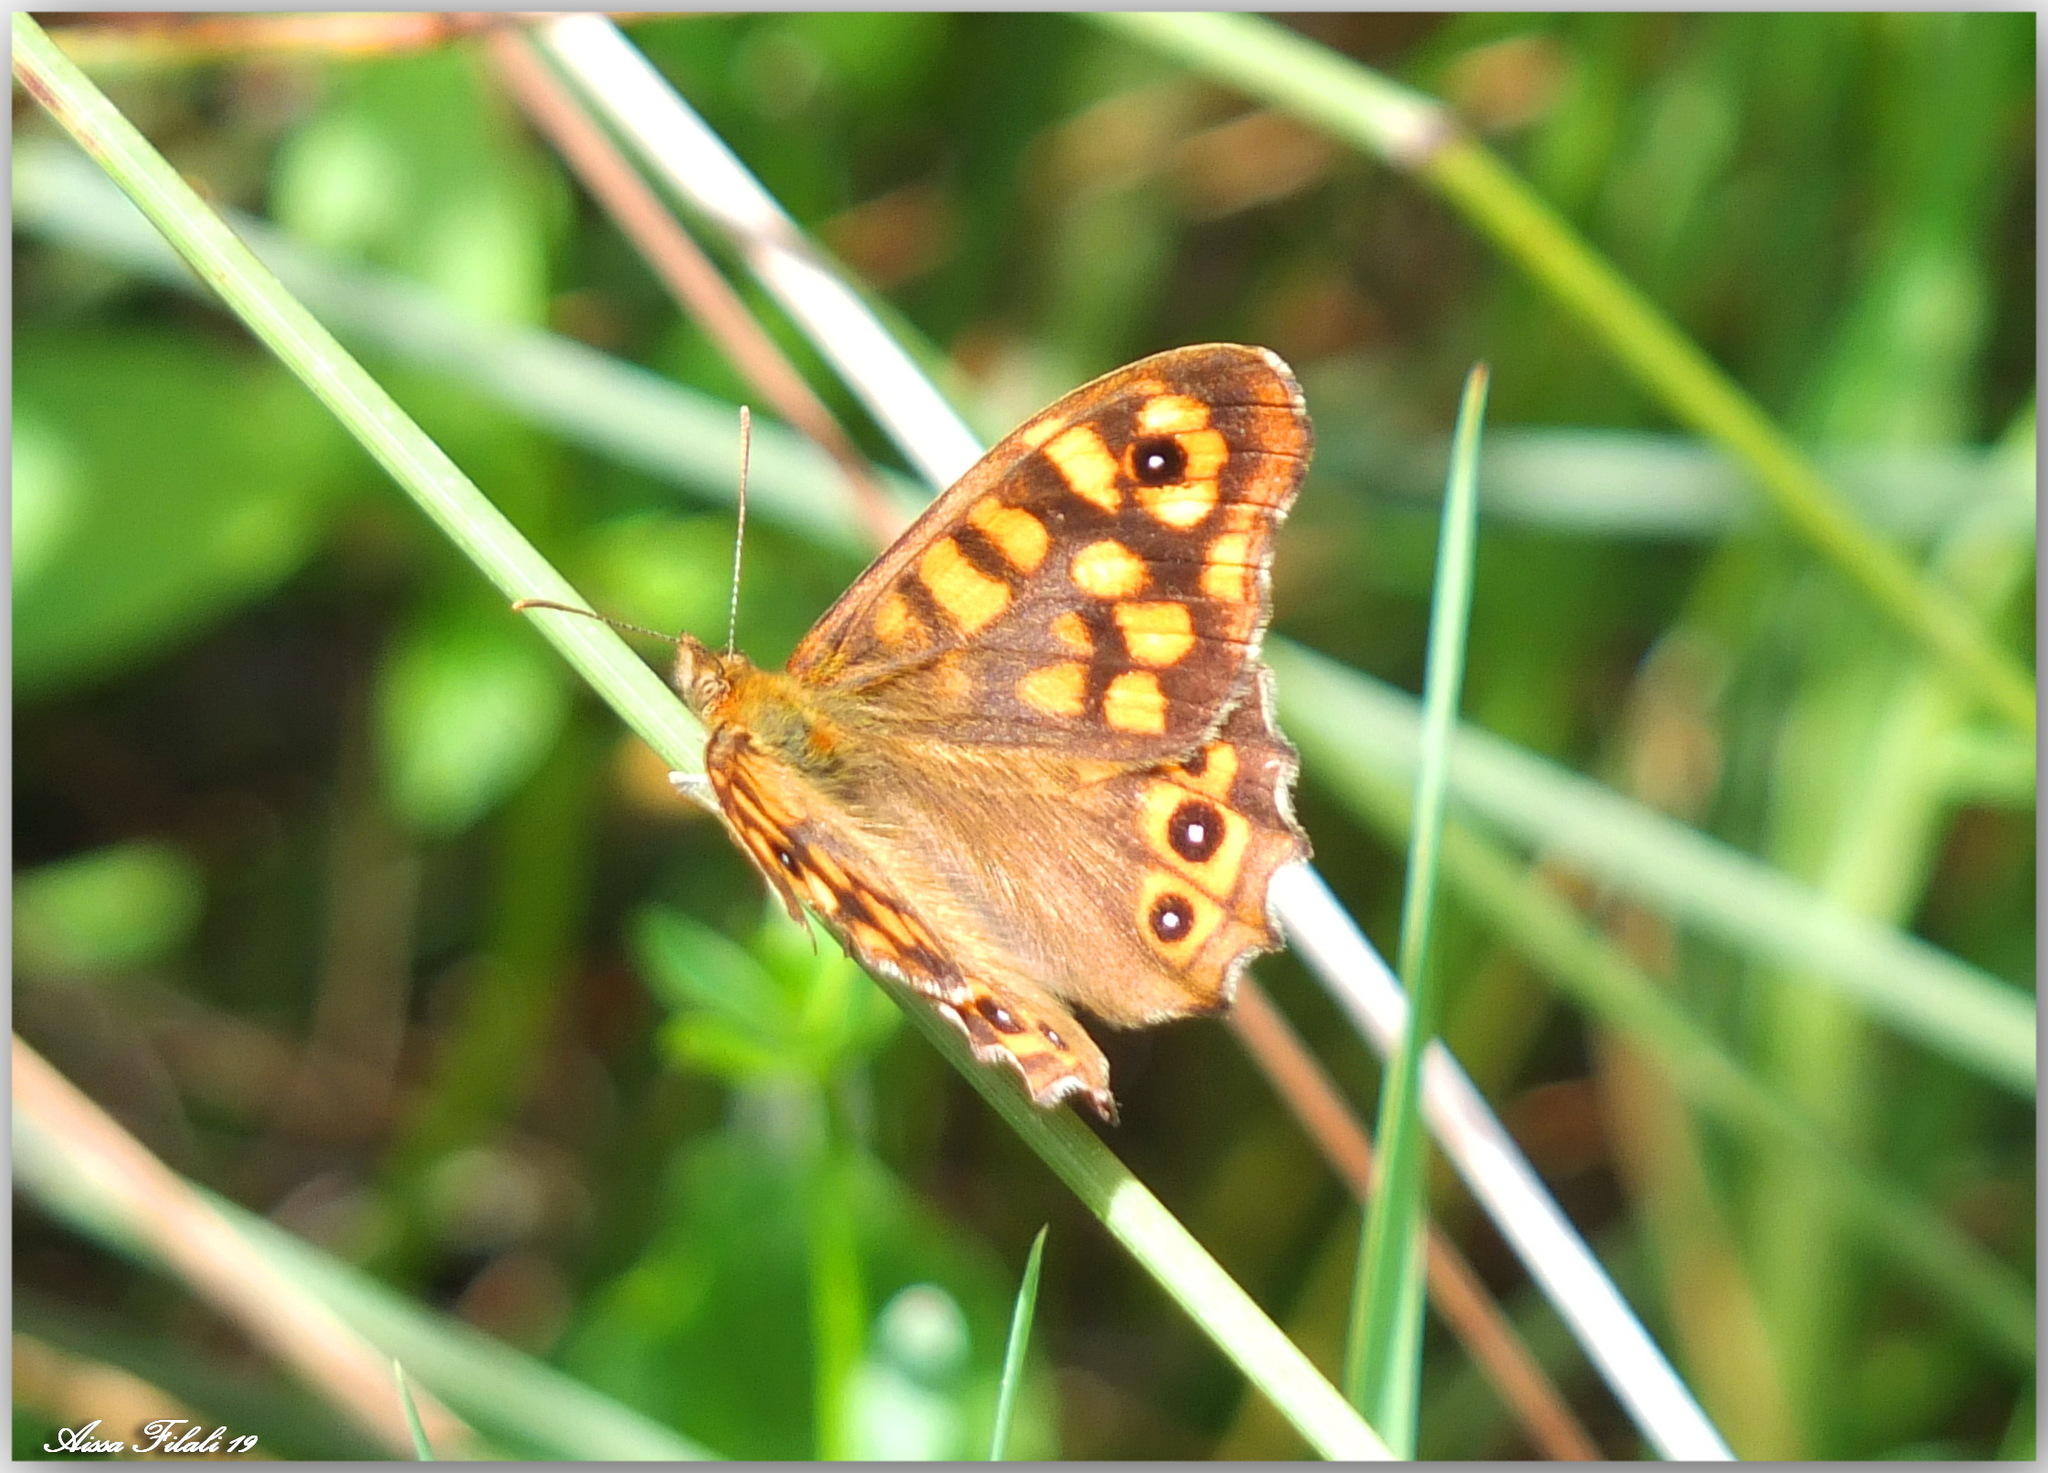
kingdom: Animalia
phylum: Arthropoda
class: Insecta
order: Lepidoptera
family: Nymphalidae
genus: Pararge
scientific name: Pararge aegeria
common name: Speckled wood
